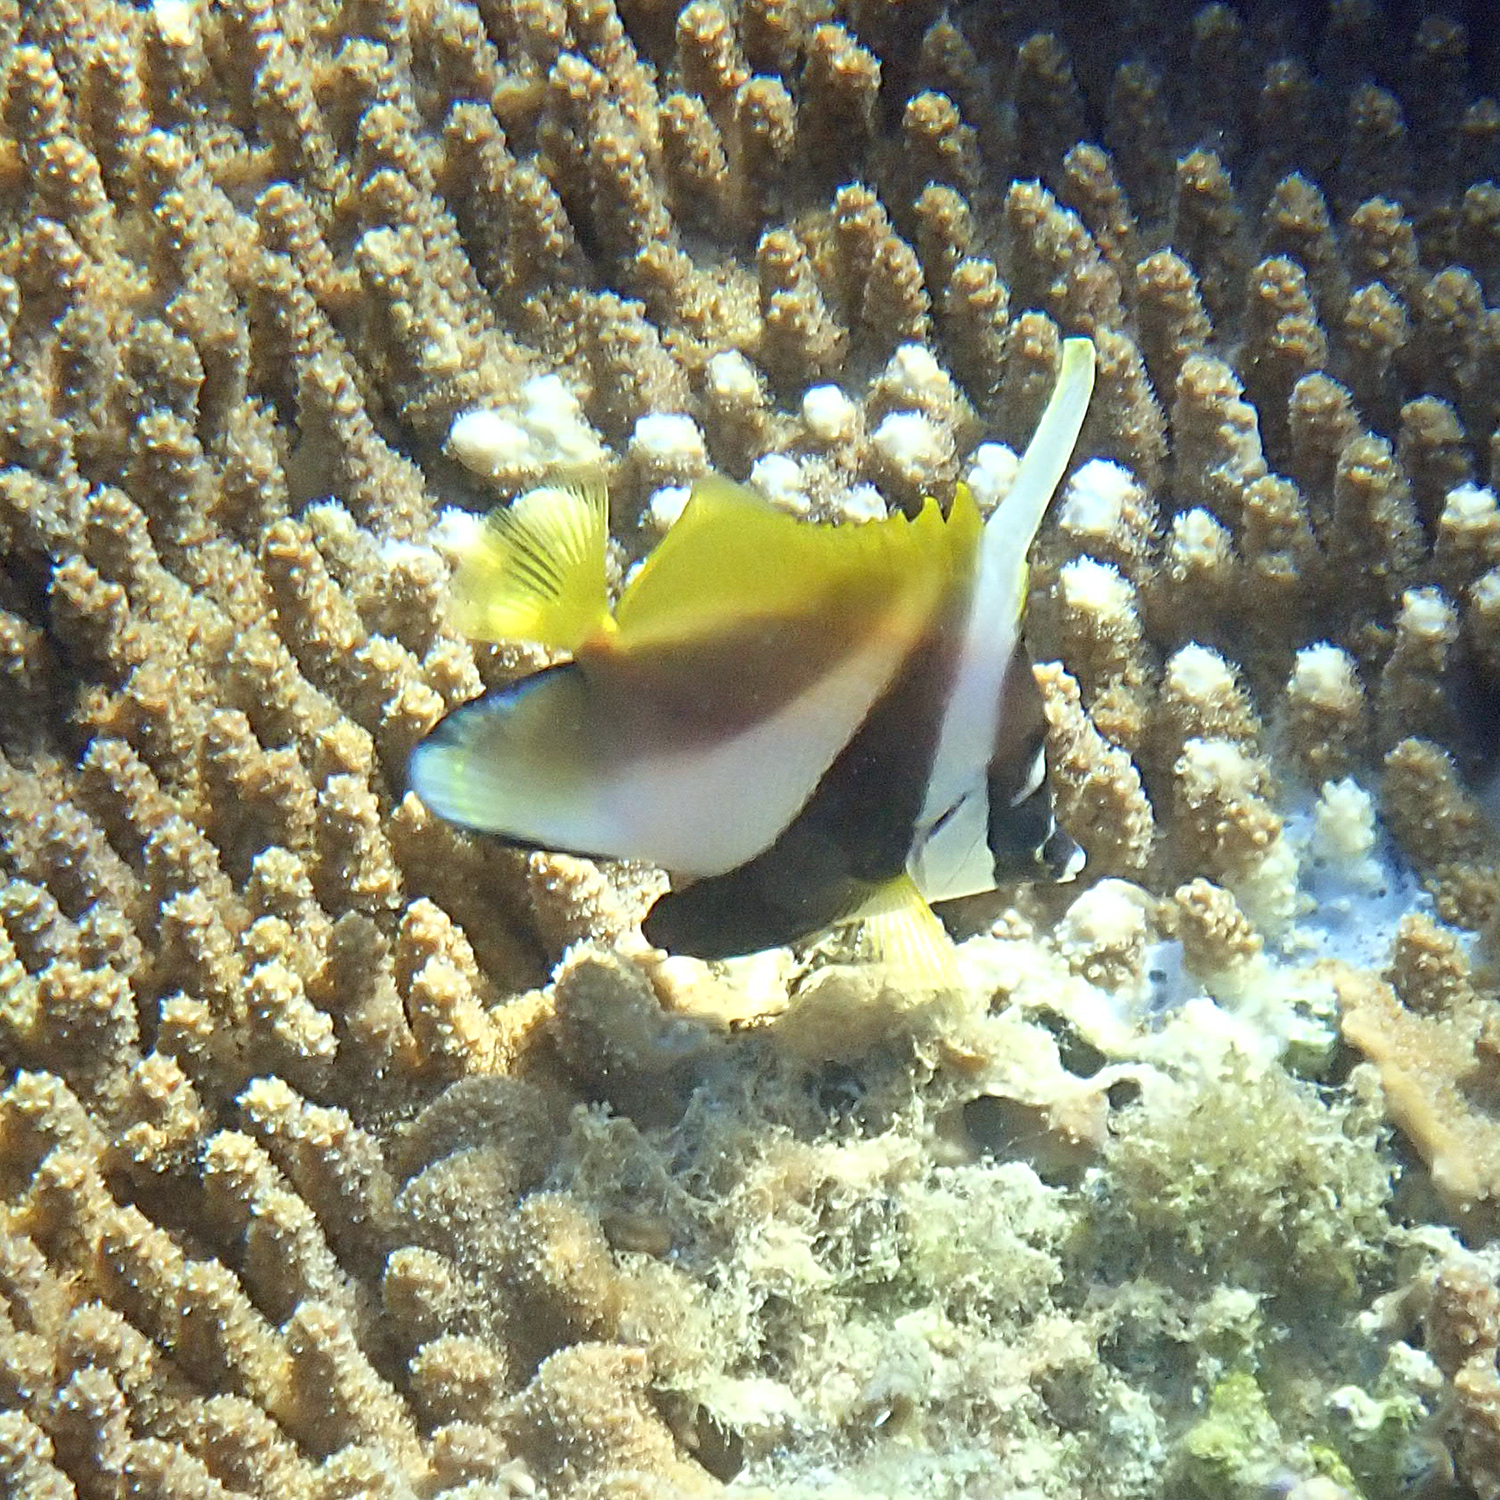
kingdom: Animalia
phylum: Chordata
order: Perciformes
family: Chaetodontidae
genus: Heniochus
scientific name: Heniochus monoceros
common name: Masked bannerfish
